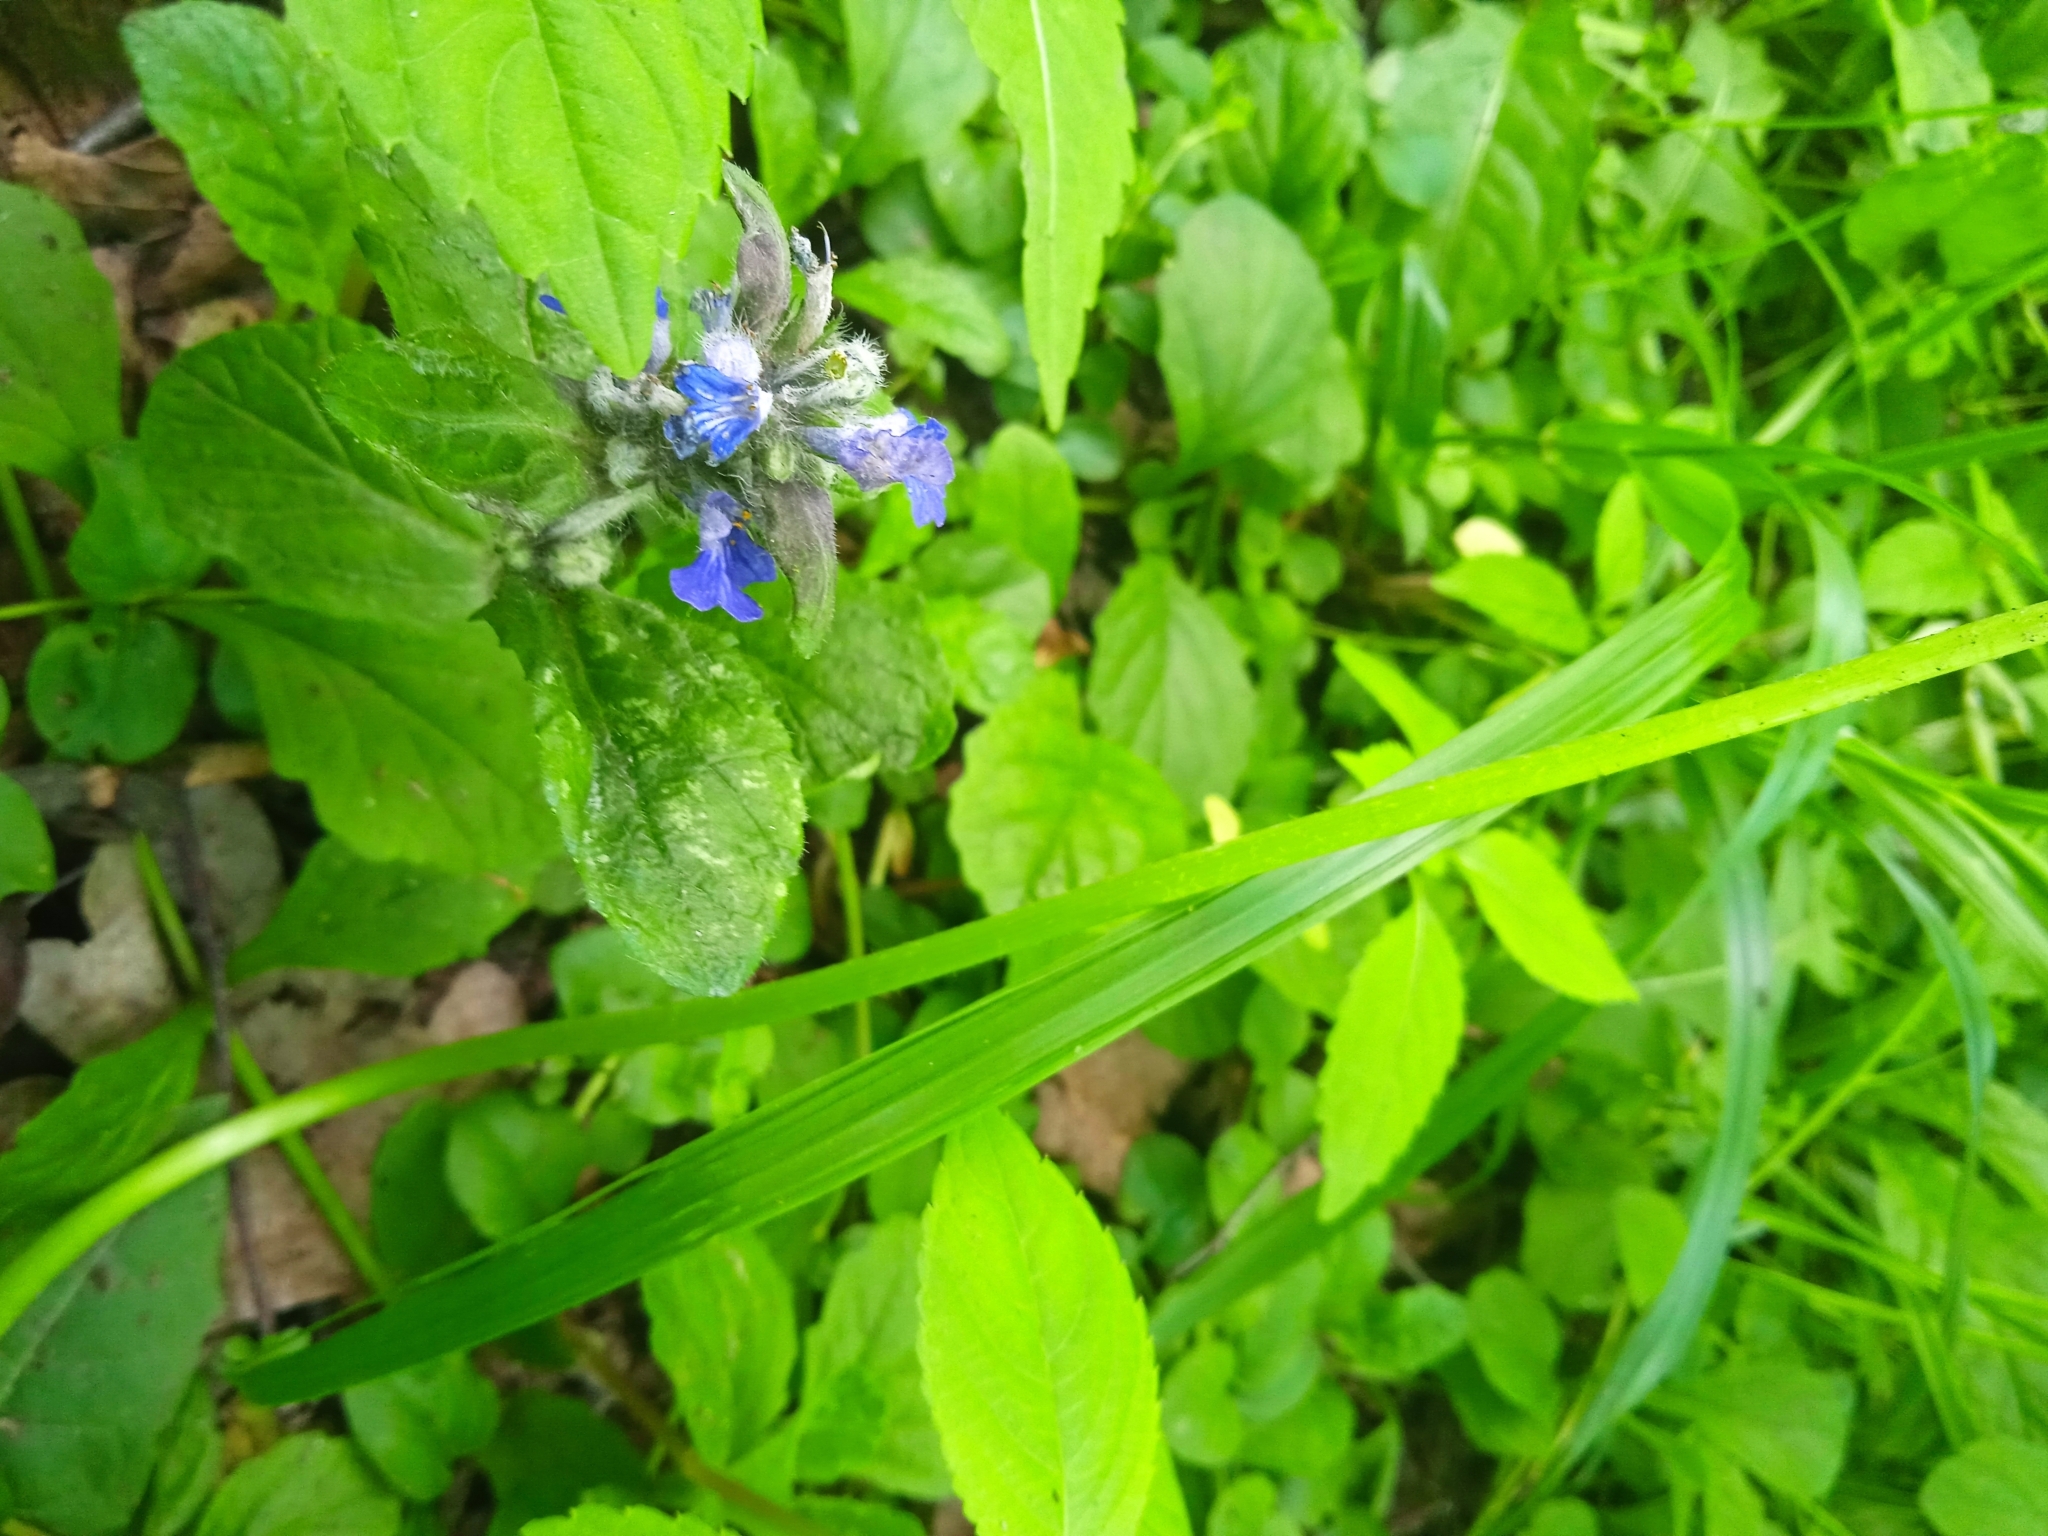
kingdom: Plantae
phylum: Tracheophyta
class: Magnoliopsida
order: Lamiales
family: Lamiaceae
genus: Ajuga
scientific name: Ajuga reptans
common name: Bugle
